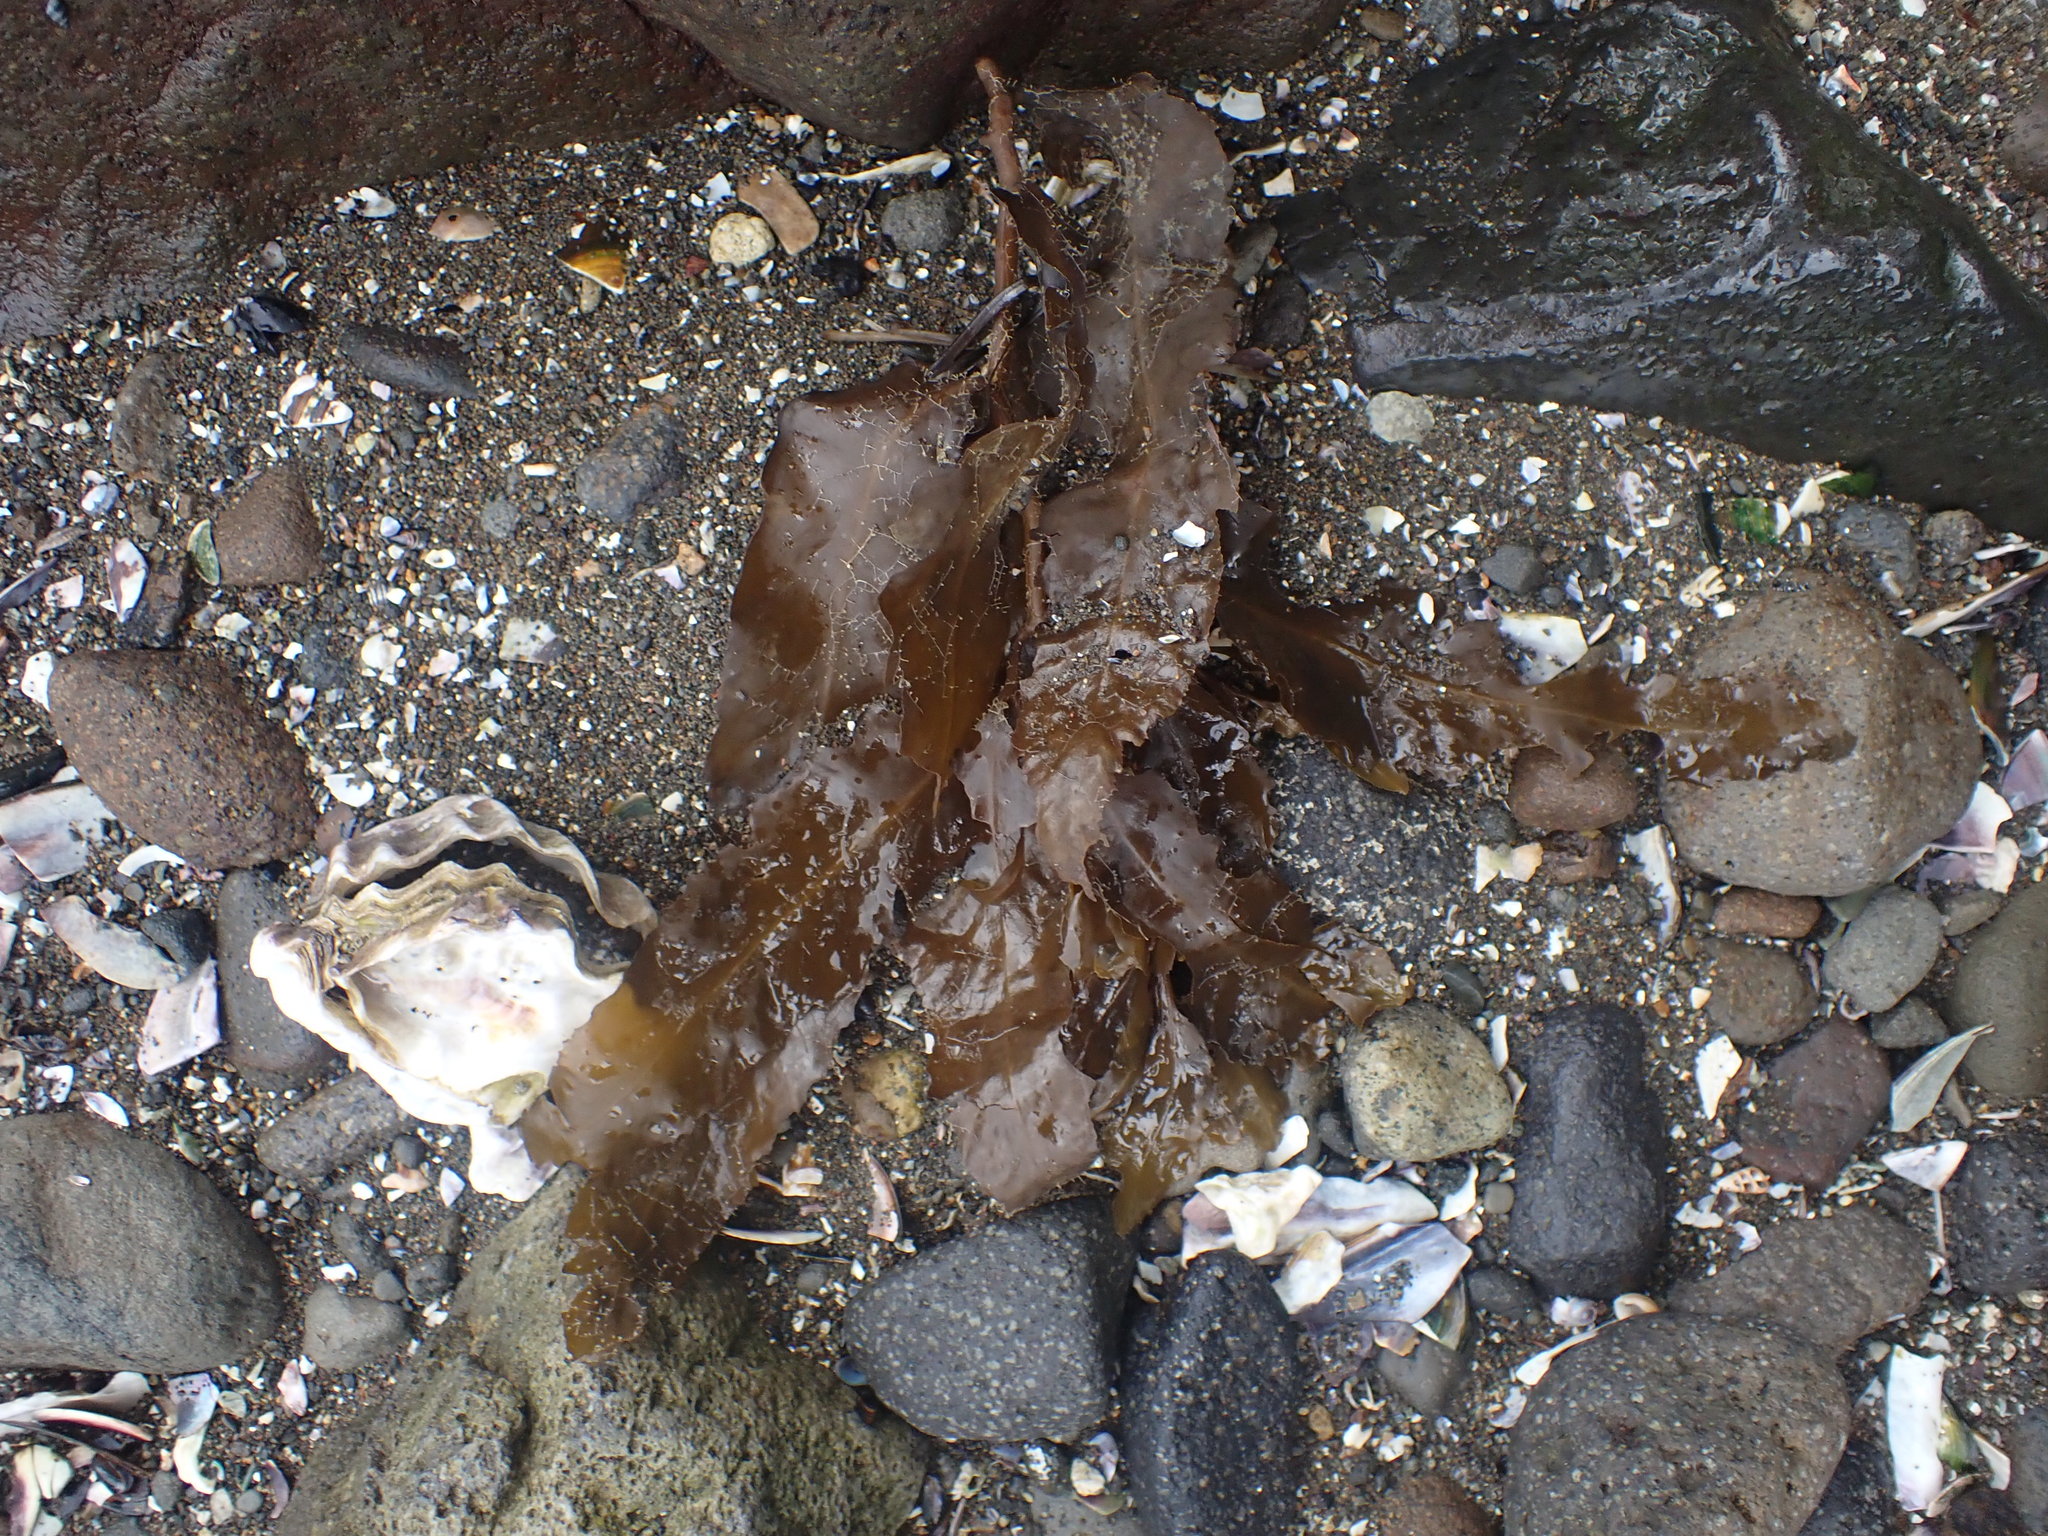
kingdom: Chromista
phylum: Ochrophyta
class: Phaeophyceae
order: Fucales
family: Sargassaceae
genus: Sargassum
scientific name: Sargassum sinclairii
